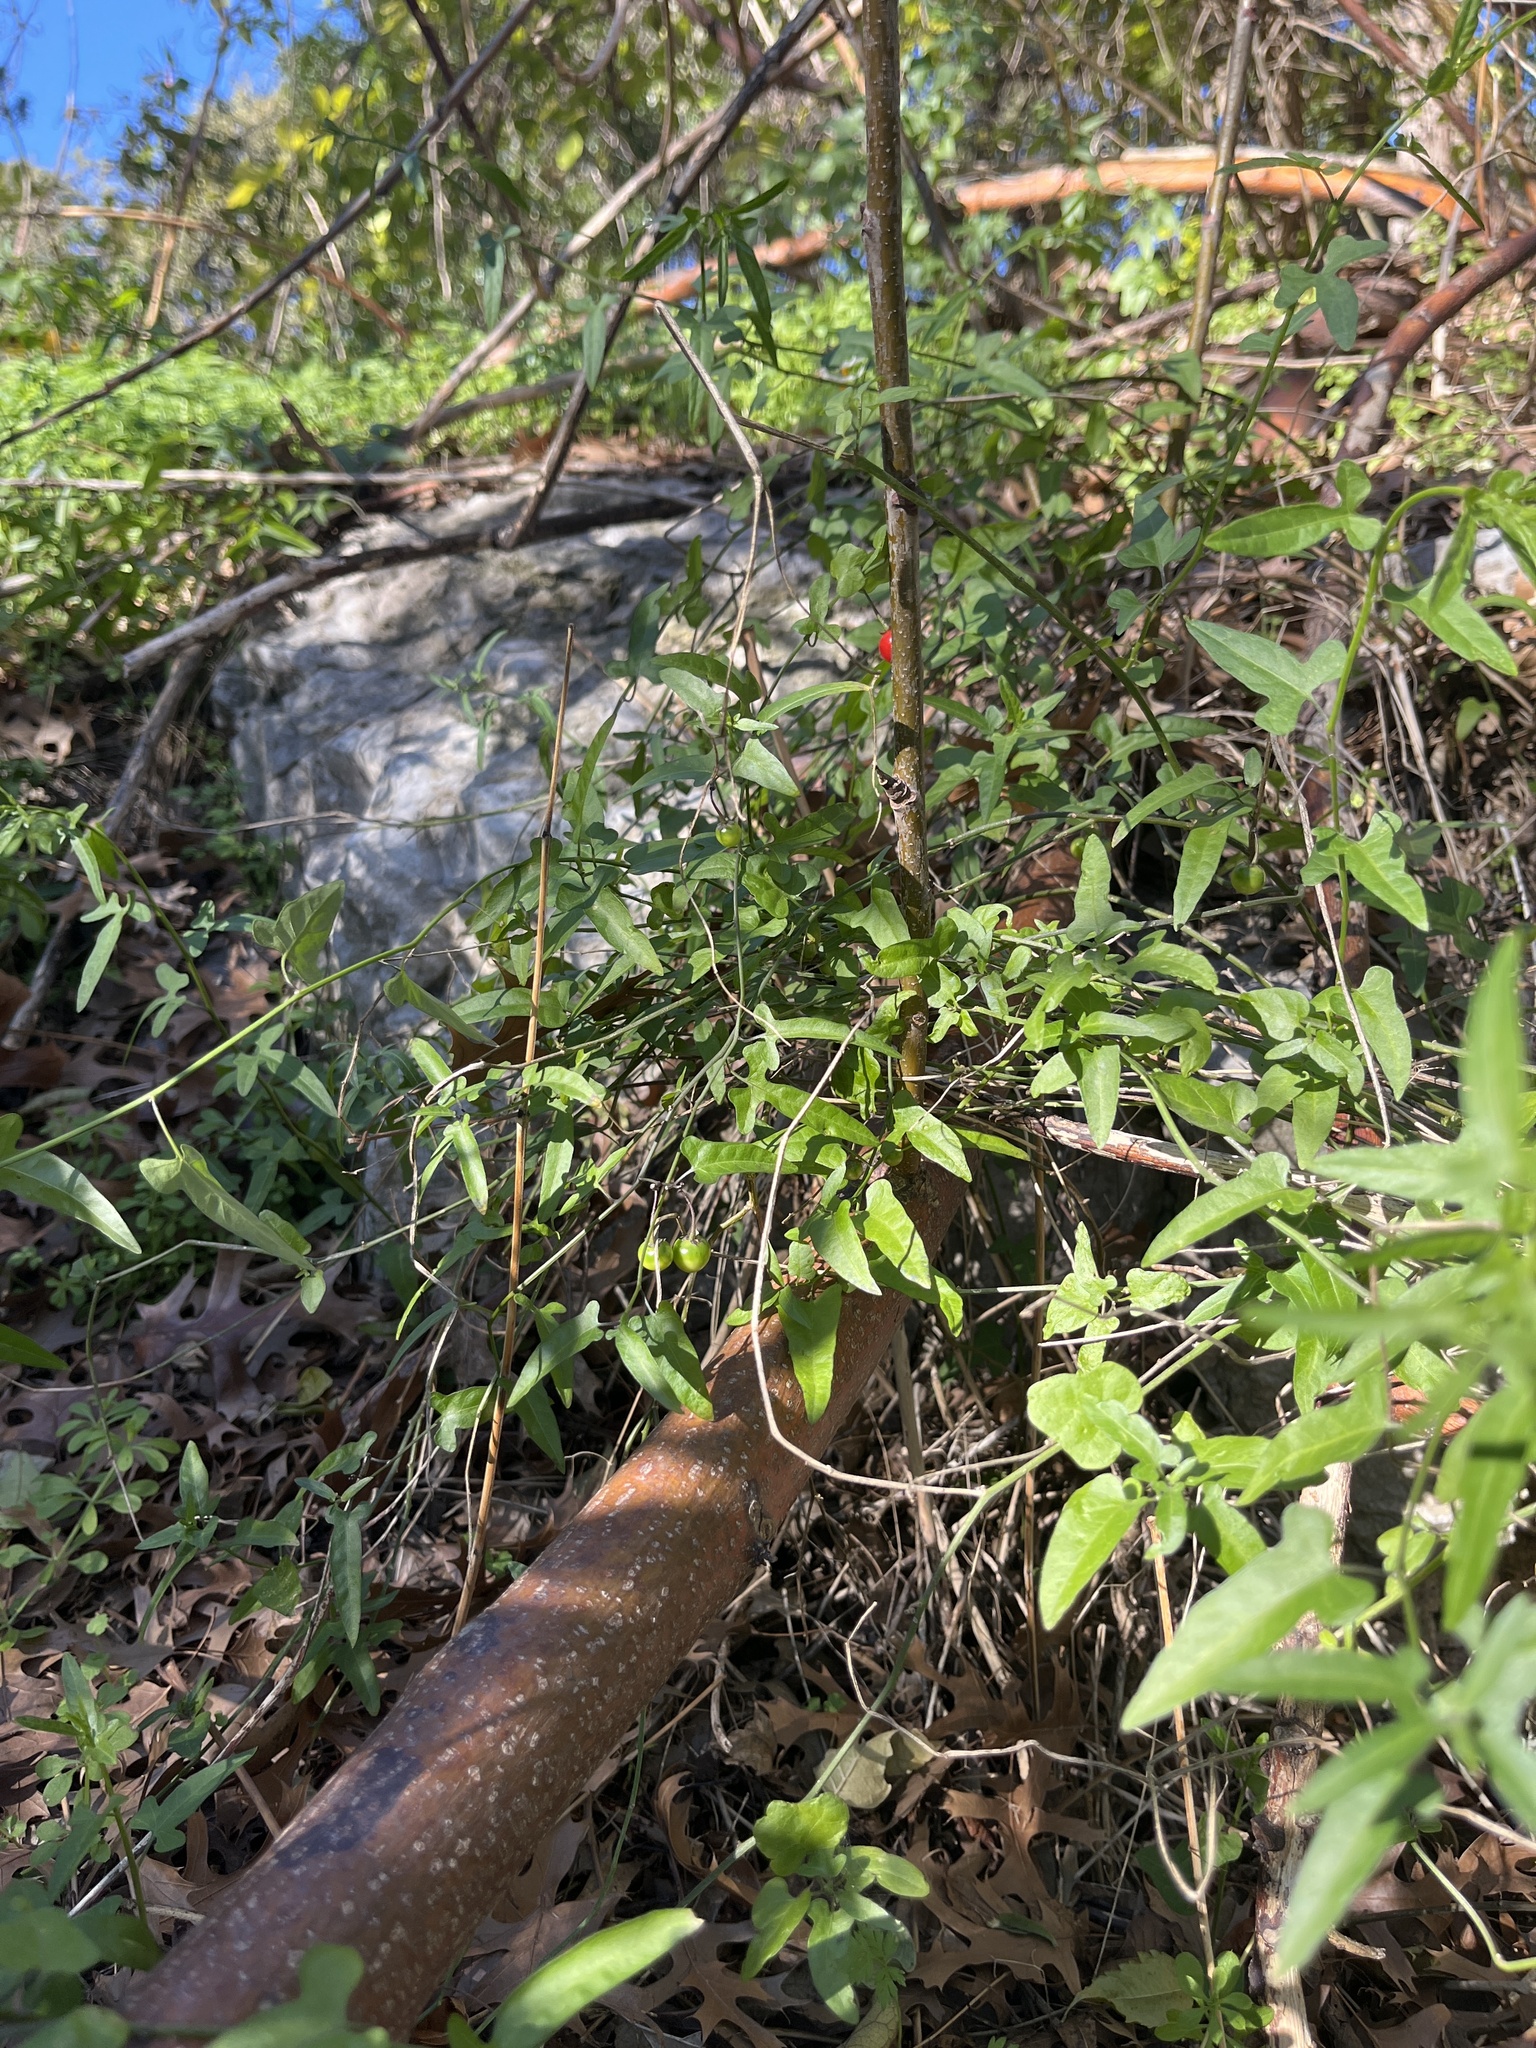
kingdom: Plantae
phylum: Tracheophyta
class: Magnoliopsida
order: Solanales
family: Solanaceae
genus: Solanum
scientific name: Solanum triquetrum
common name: Texas nightshade
